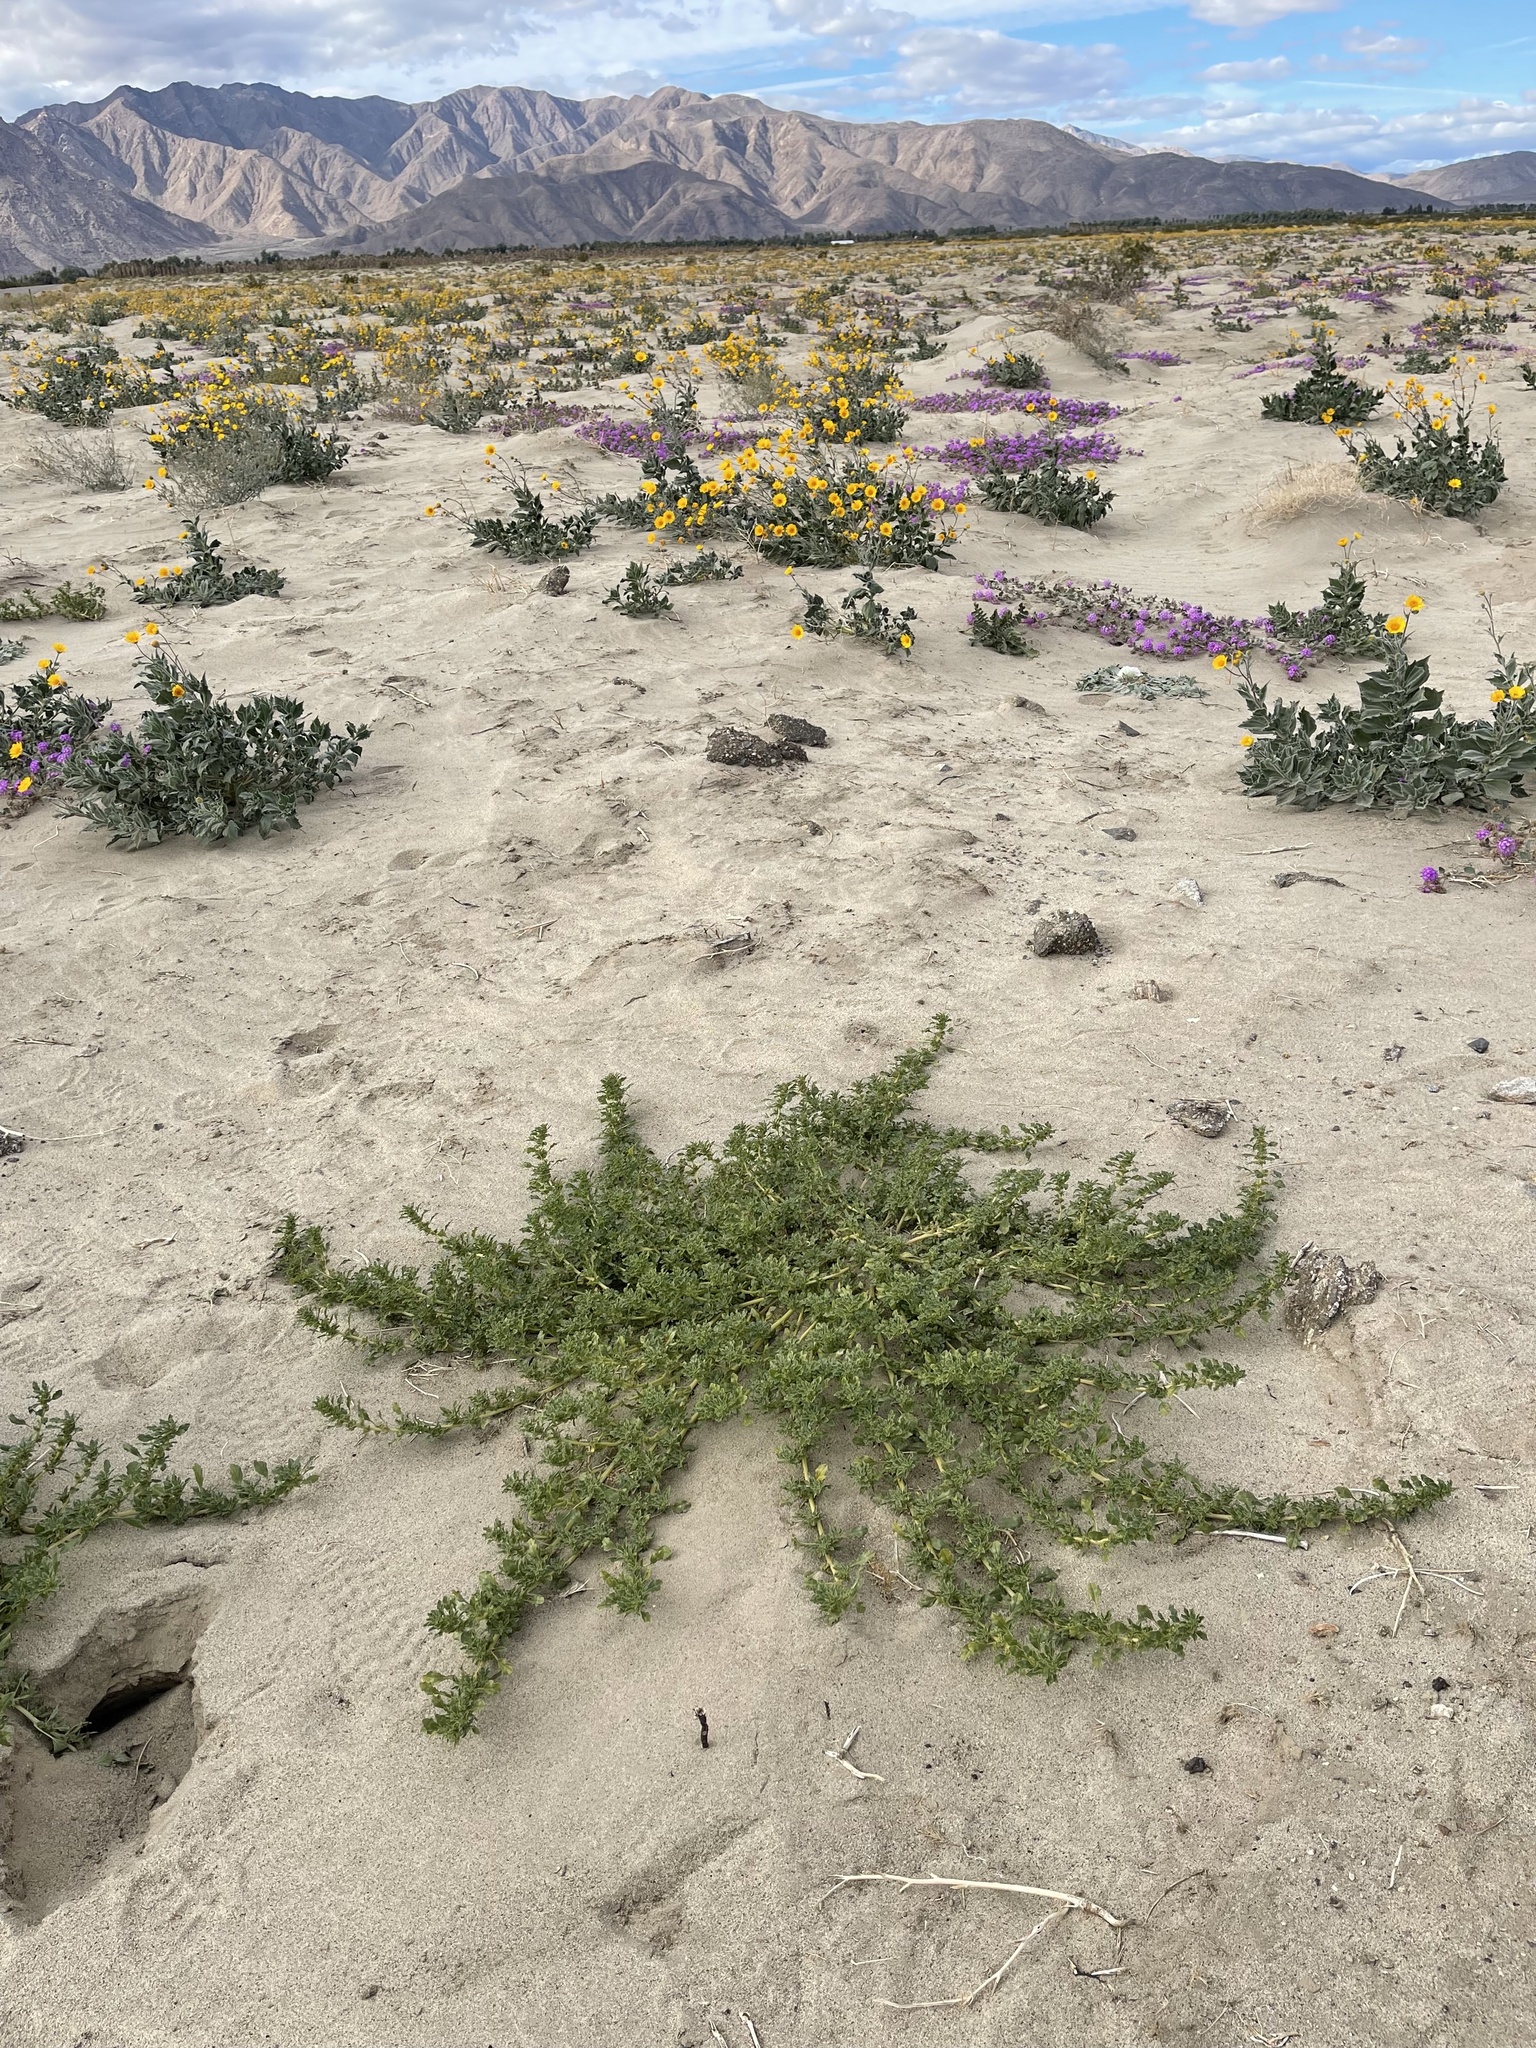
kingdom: Plantae
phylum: Tracheophyta
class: Magnoliopsida
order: Caryophyllales
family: Amaranthaceae
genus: Amaranthus
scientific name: Amaranthus blitoides
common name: Prostrate pigweed
